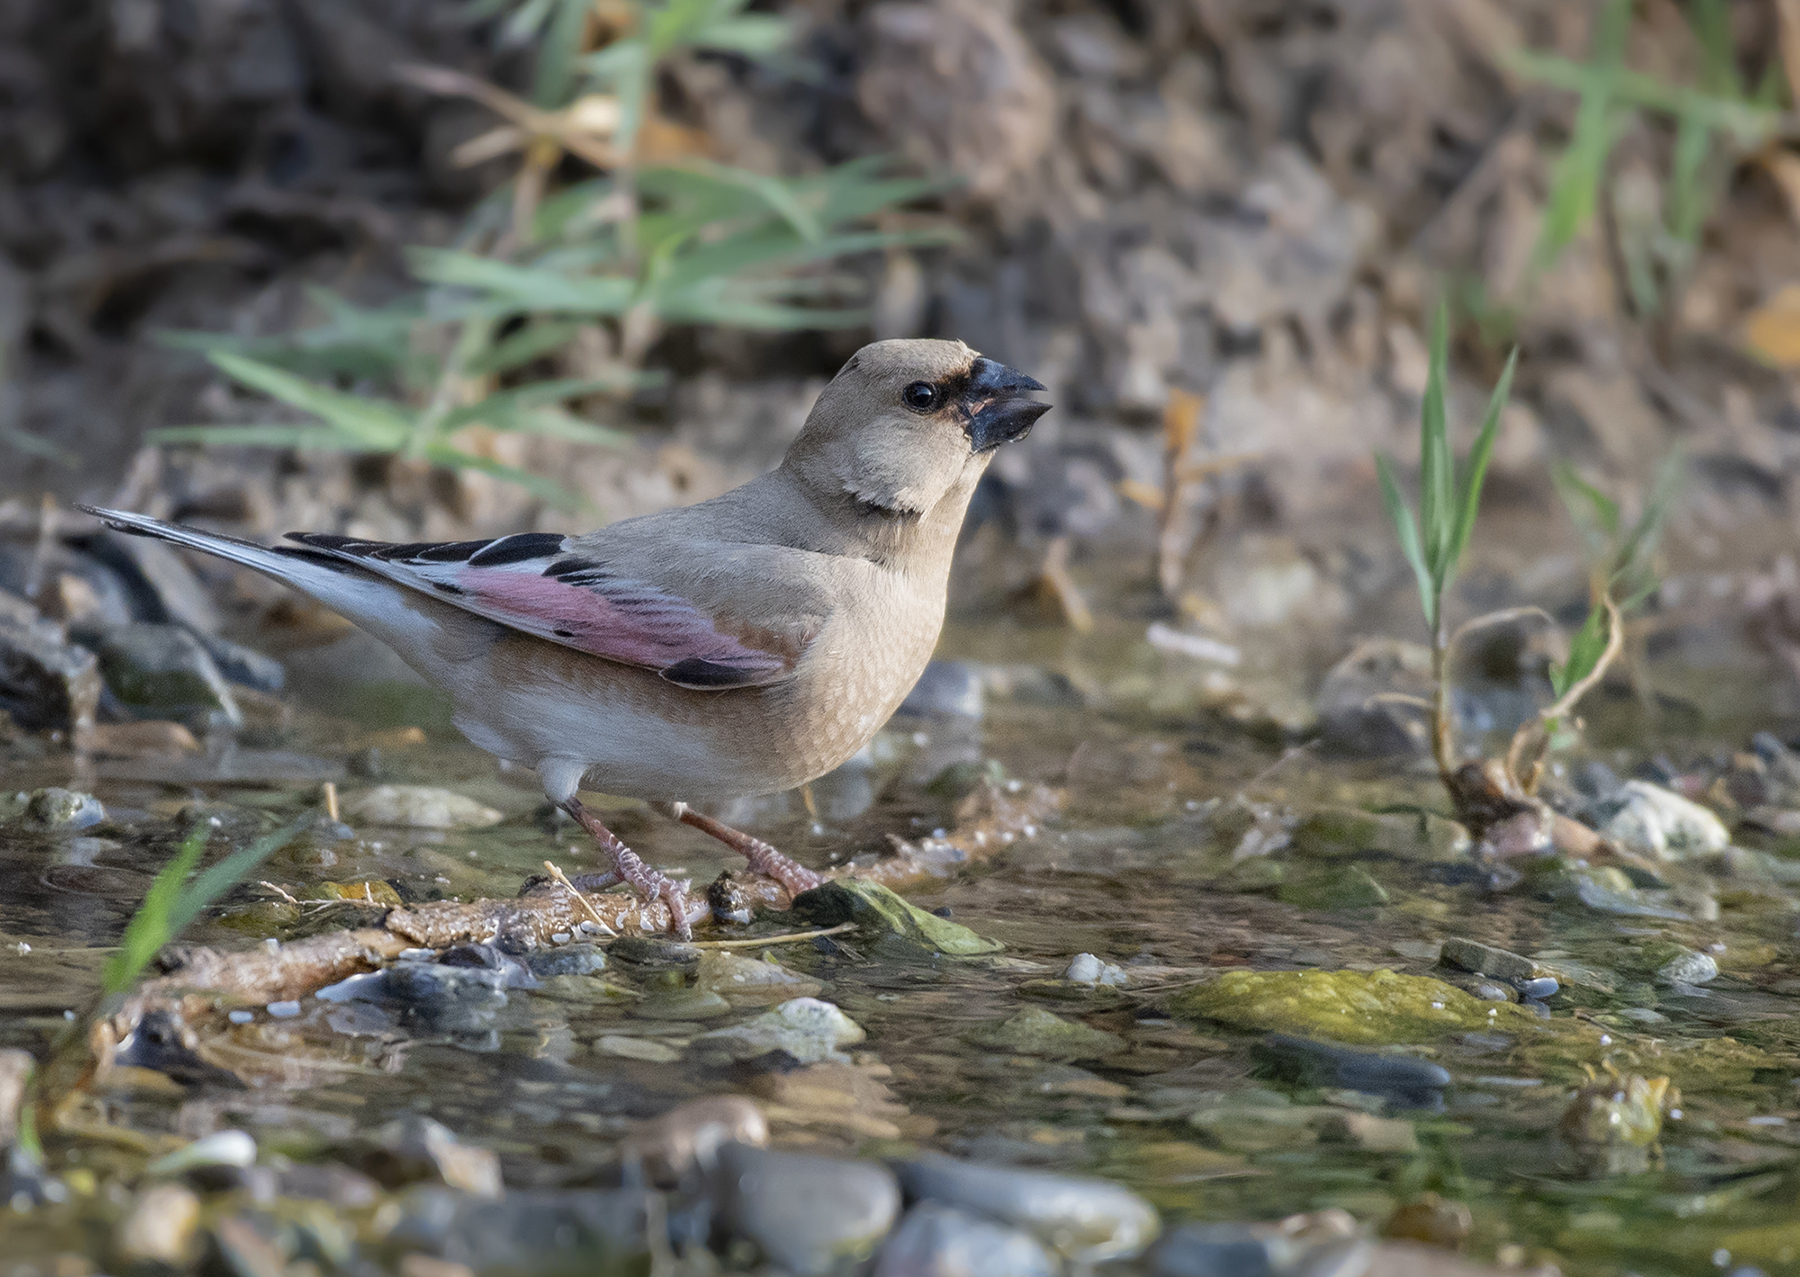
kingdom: Animalia
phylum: Chordata
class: Aves
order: Passeriformes
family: Fringillidae
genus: Rhodospiza
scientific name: Rhodospiza obsoleta
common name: Desert finch
